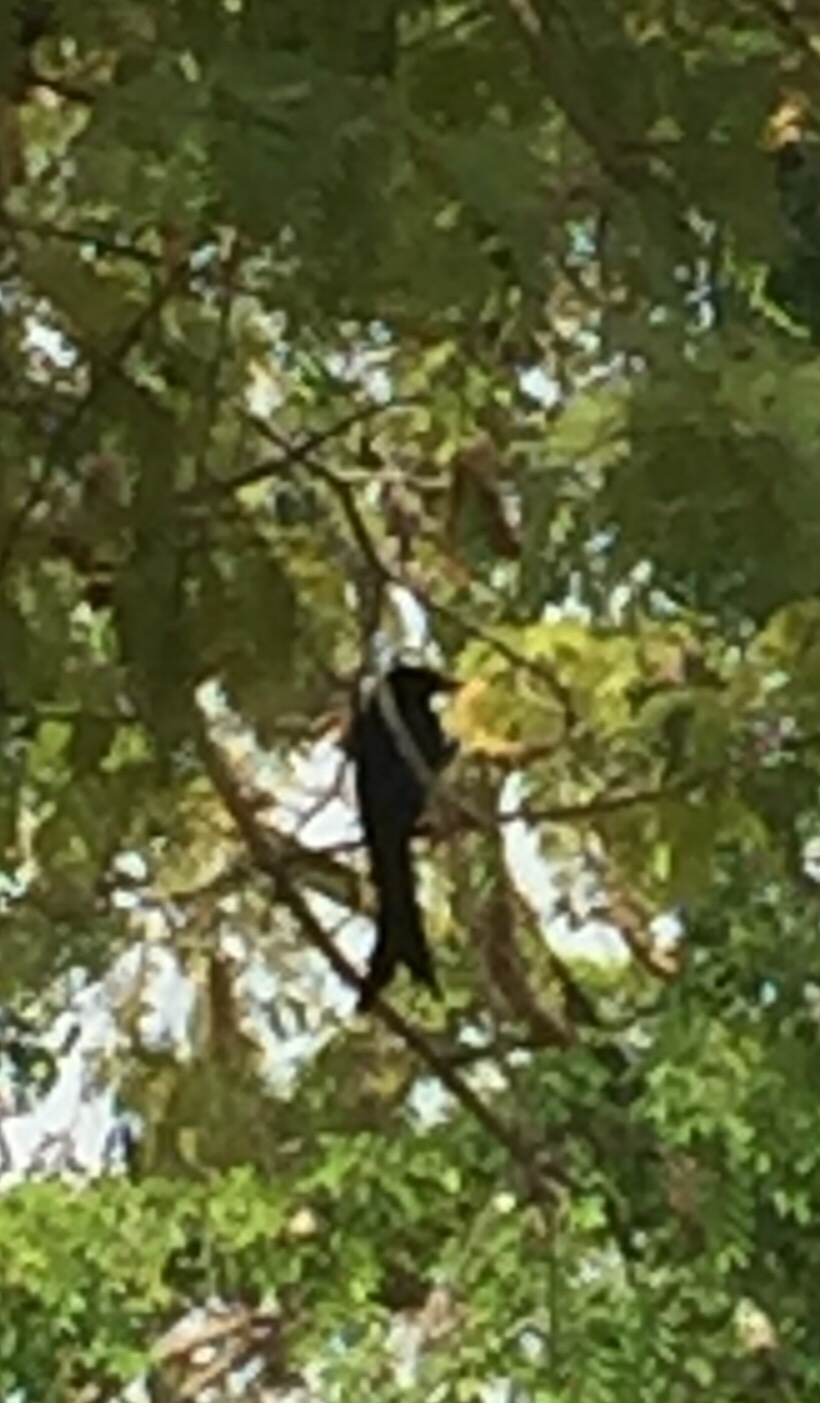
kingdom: Animalia
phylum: Chordata
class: Aves
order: Passeriformes
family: Dicruridae
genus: Dicrurus
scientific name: Dicrurus
